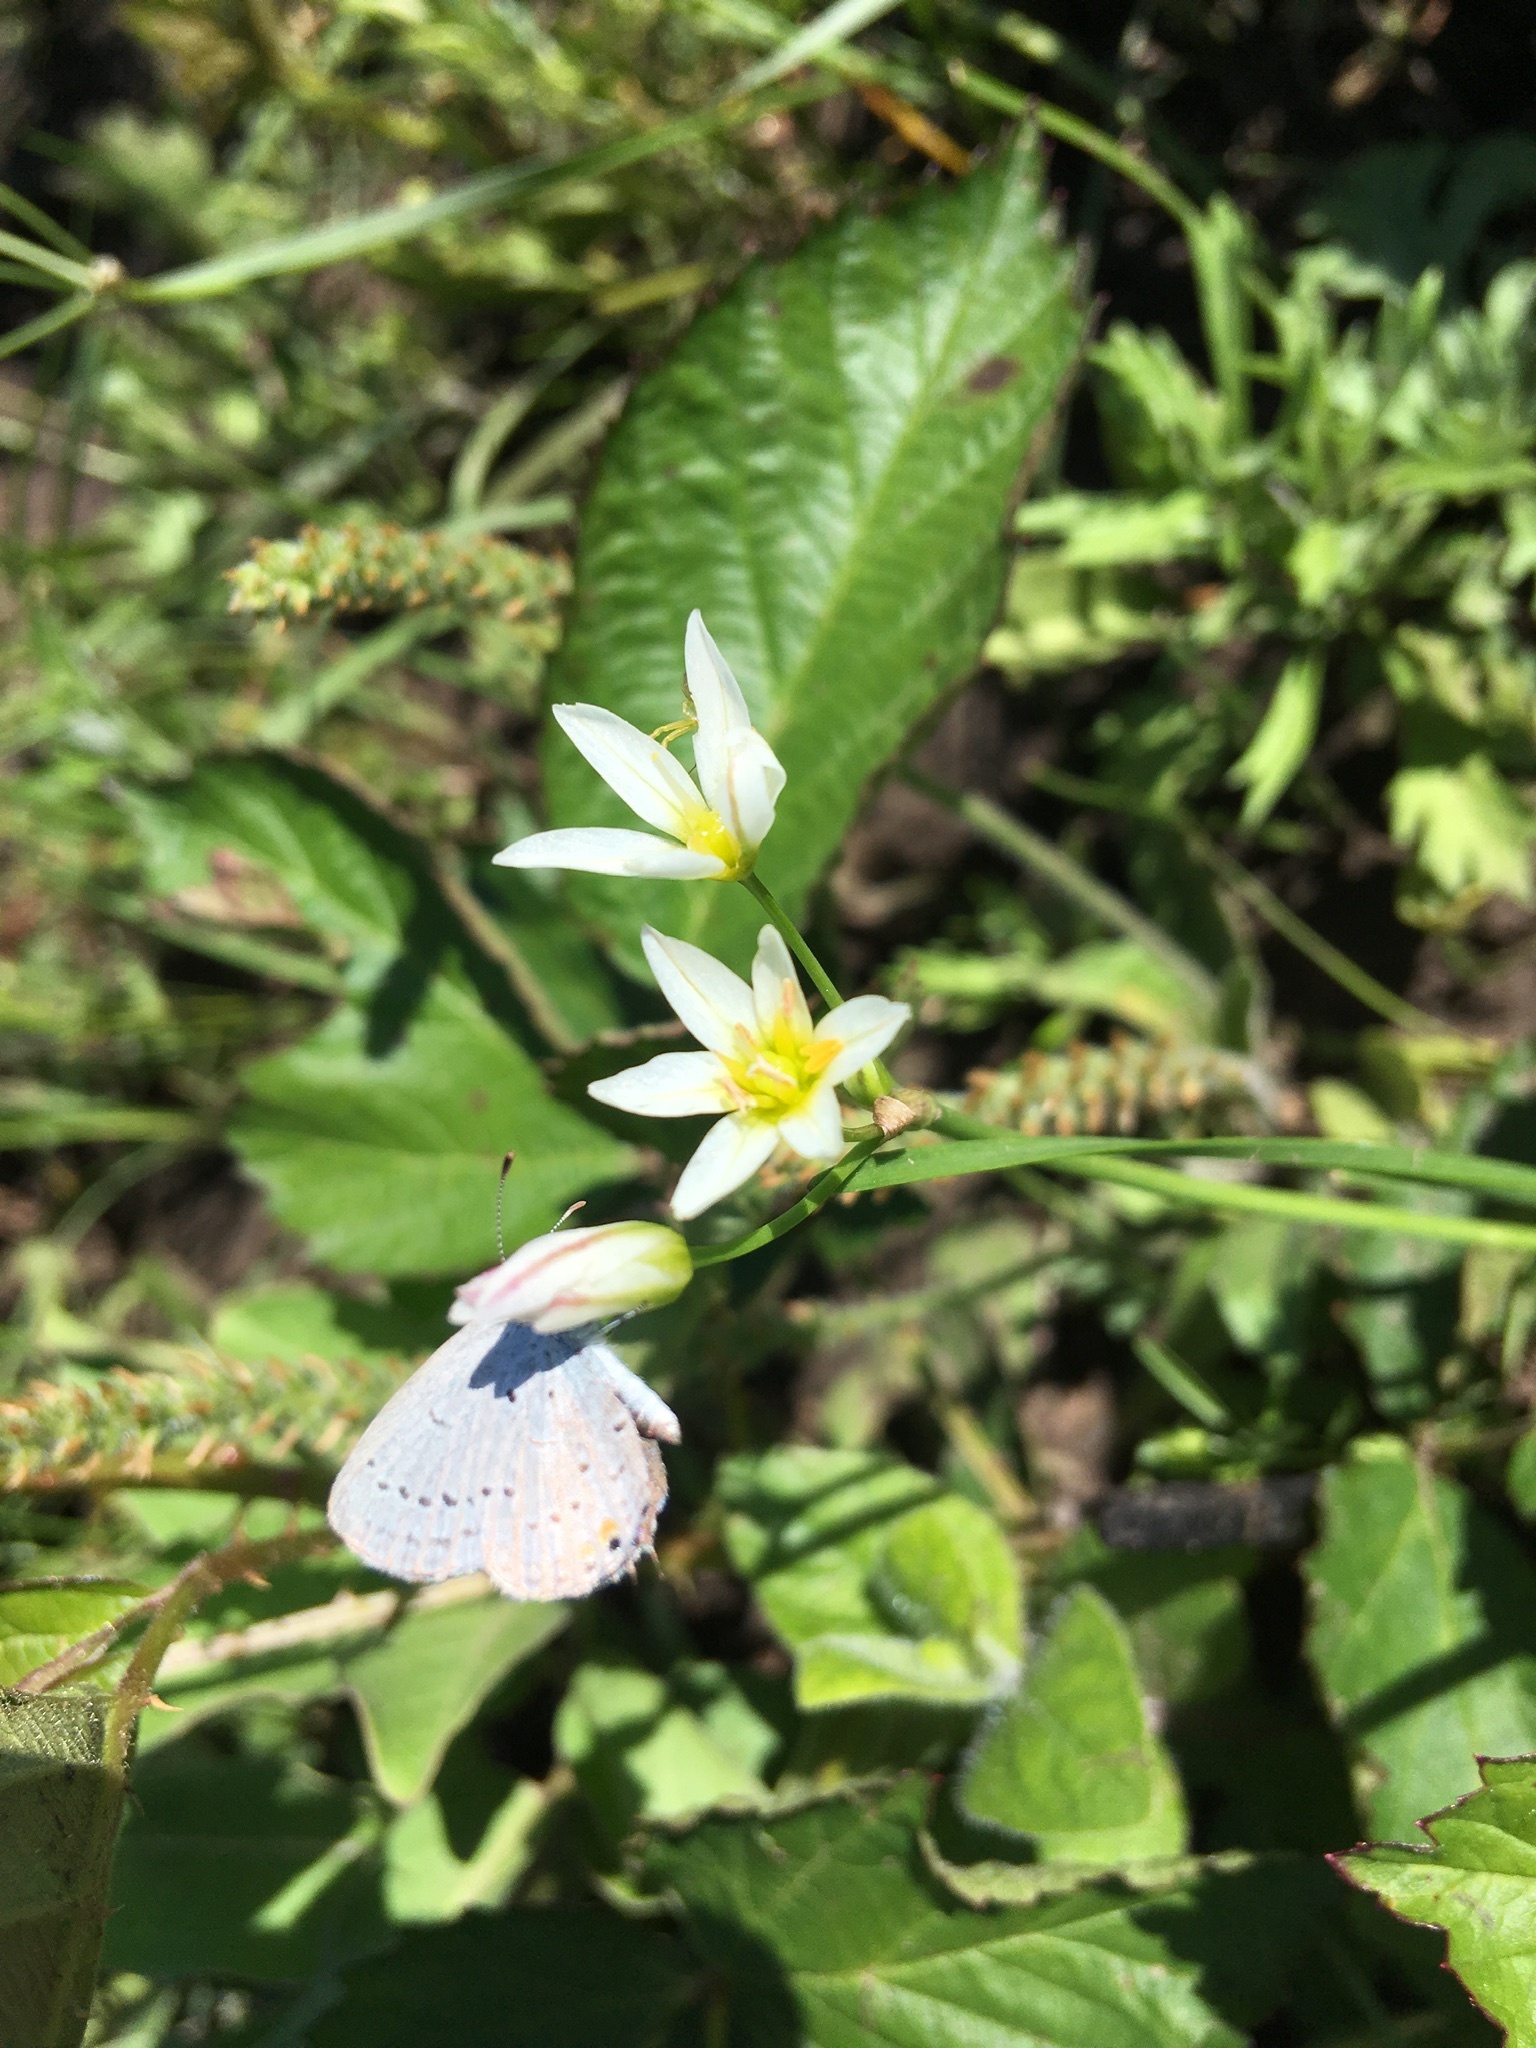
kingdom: Animalia
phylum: Arthropoda
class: Insecta
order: Lepidoptera
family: Lycaenidae
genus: Elkalyce
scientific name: Elkalyce comyntas
